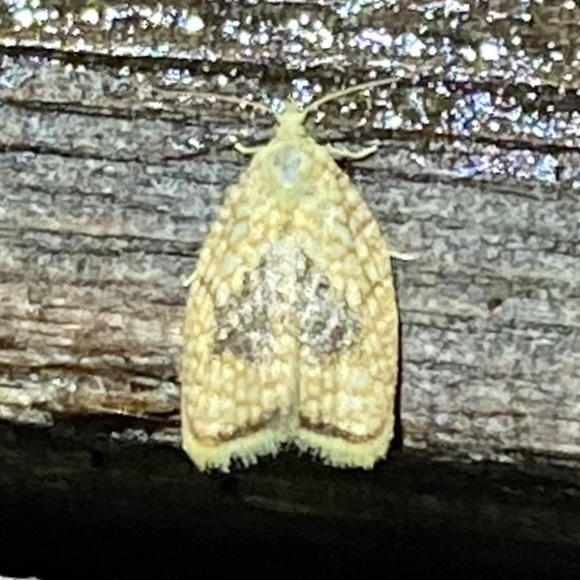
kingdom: Animalia
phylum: Arthropoda
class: Insecta
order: Lepidoptera
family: Tortricidae
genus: Acleris
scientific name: Acleris forsskaleana
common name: Maple button
